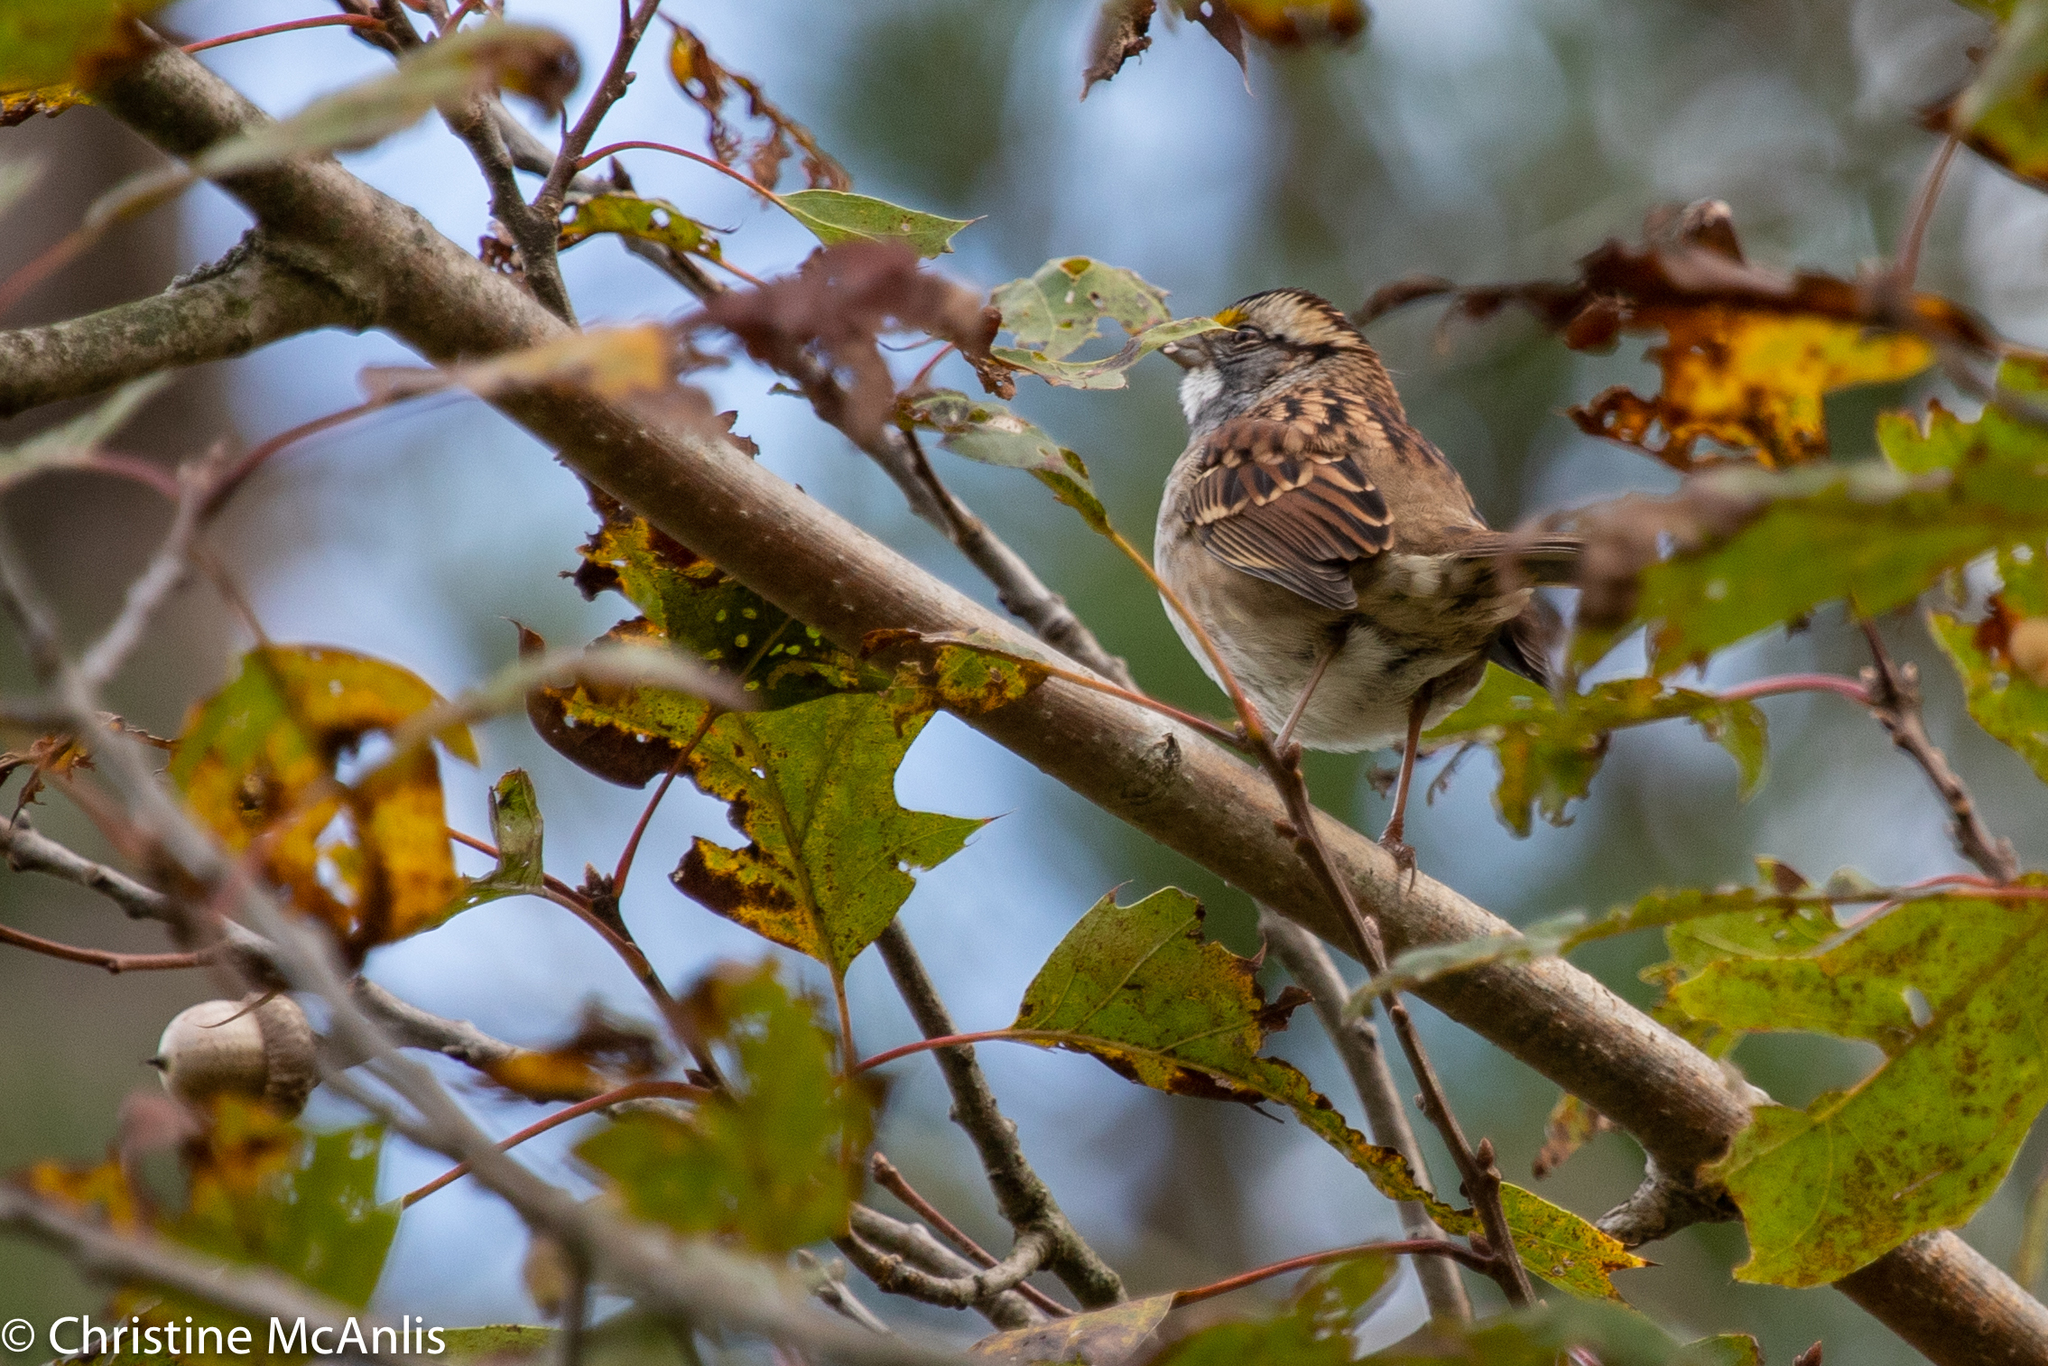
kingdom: Animalia
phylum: Chordata
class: Aves
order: Passeriformes
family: Passerellidae
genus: Zonotrichia
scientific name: Zonotrichia albicollis
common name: White-throated sparrow
